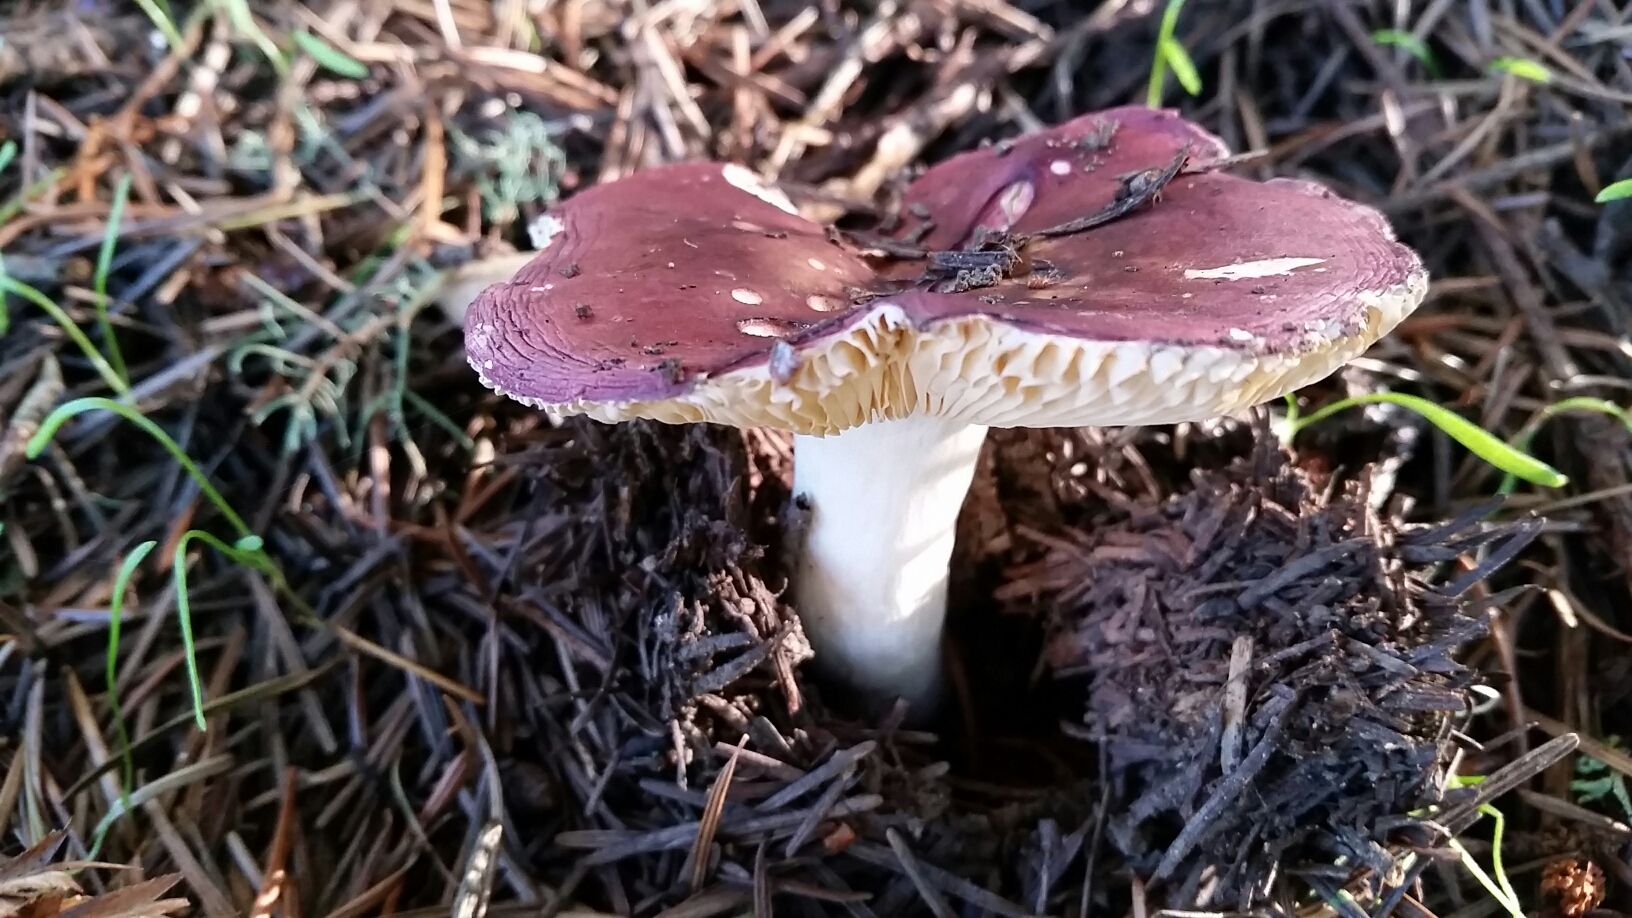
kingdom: Fungi
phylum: Basidiomycota
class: Agaricomycetes
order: Russulales
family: Russulaceae
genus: Russula
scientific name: Russula xerampelina
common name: Crab brittlegill
